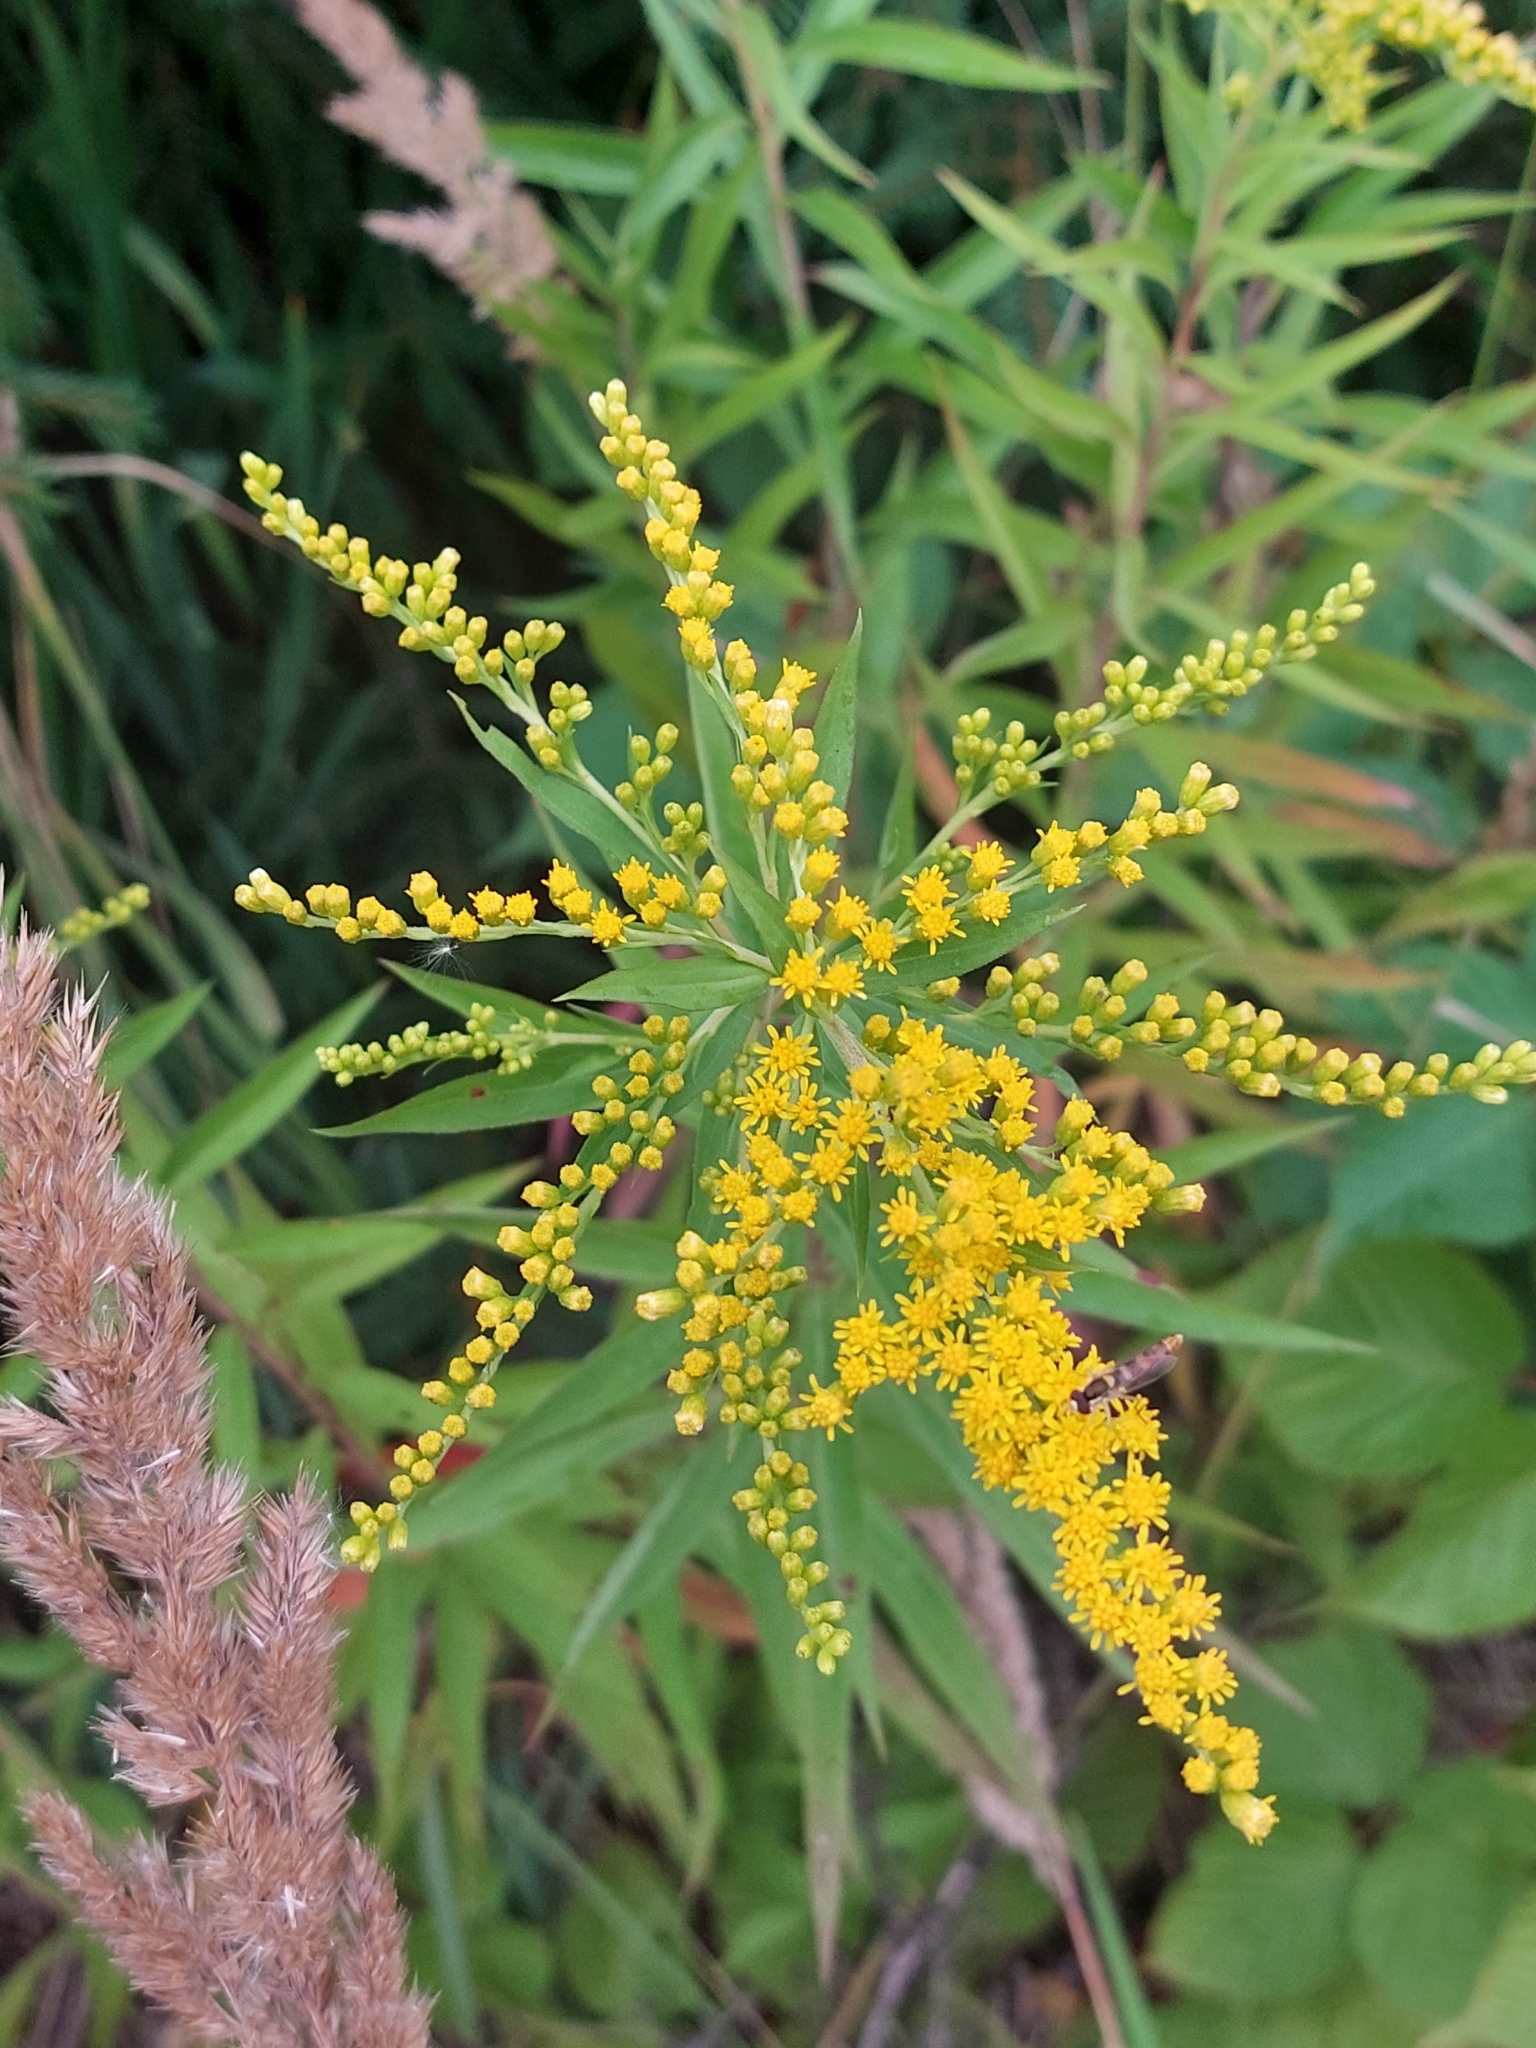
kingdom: Plantae
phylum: Tracheophyta
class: Magnoliopsida
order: Asterales
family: Asteraceae
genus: Solidago
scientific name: Solidago gigantea
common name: Giant goldenrod
